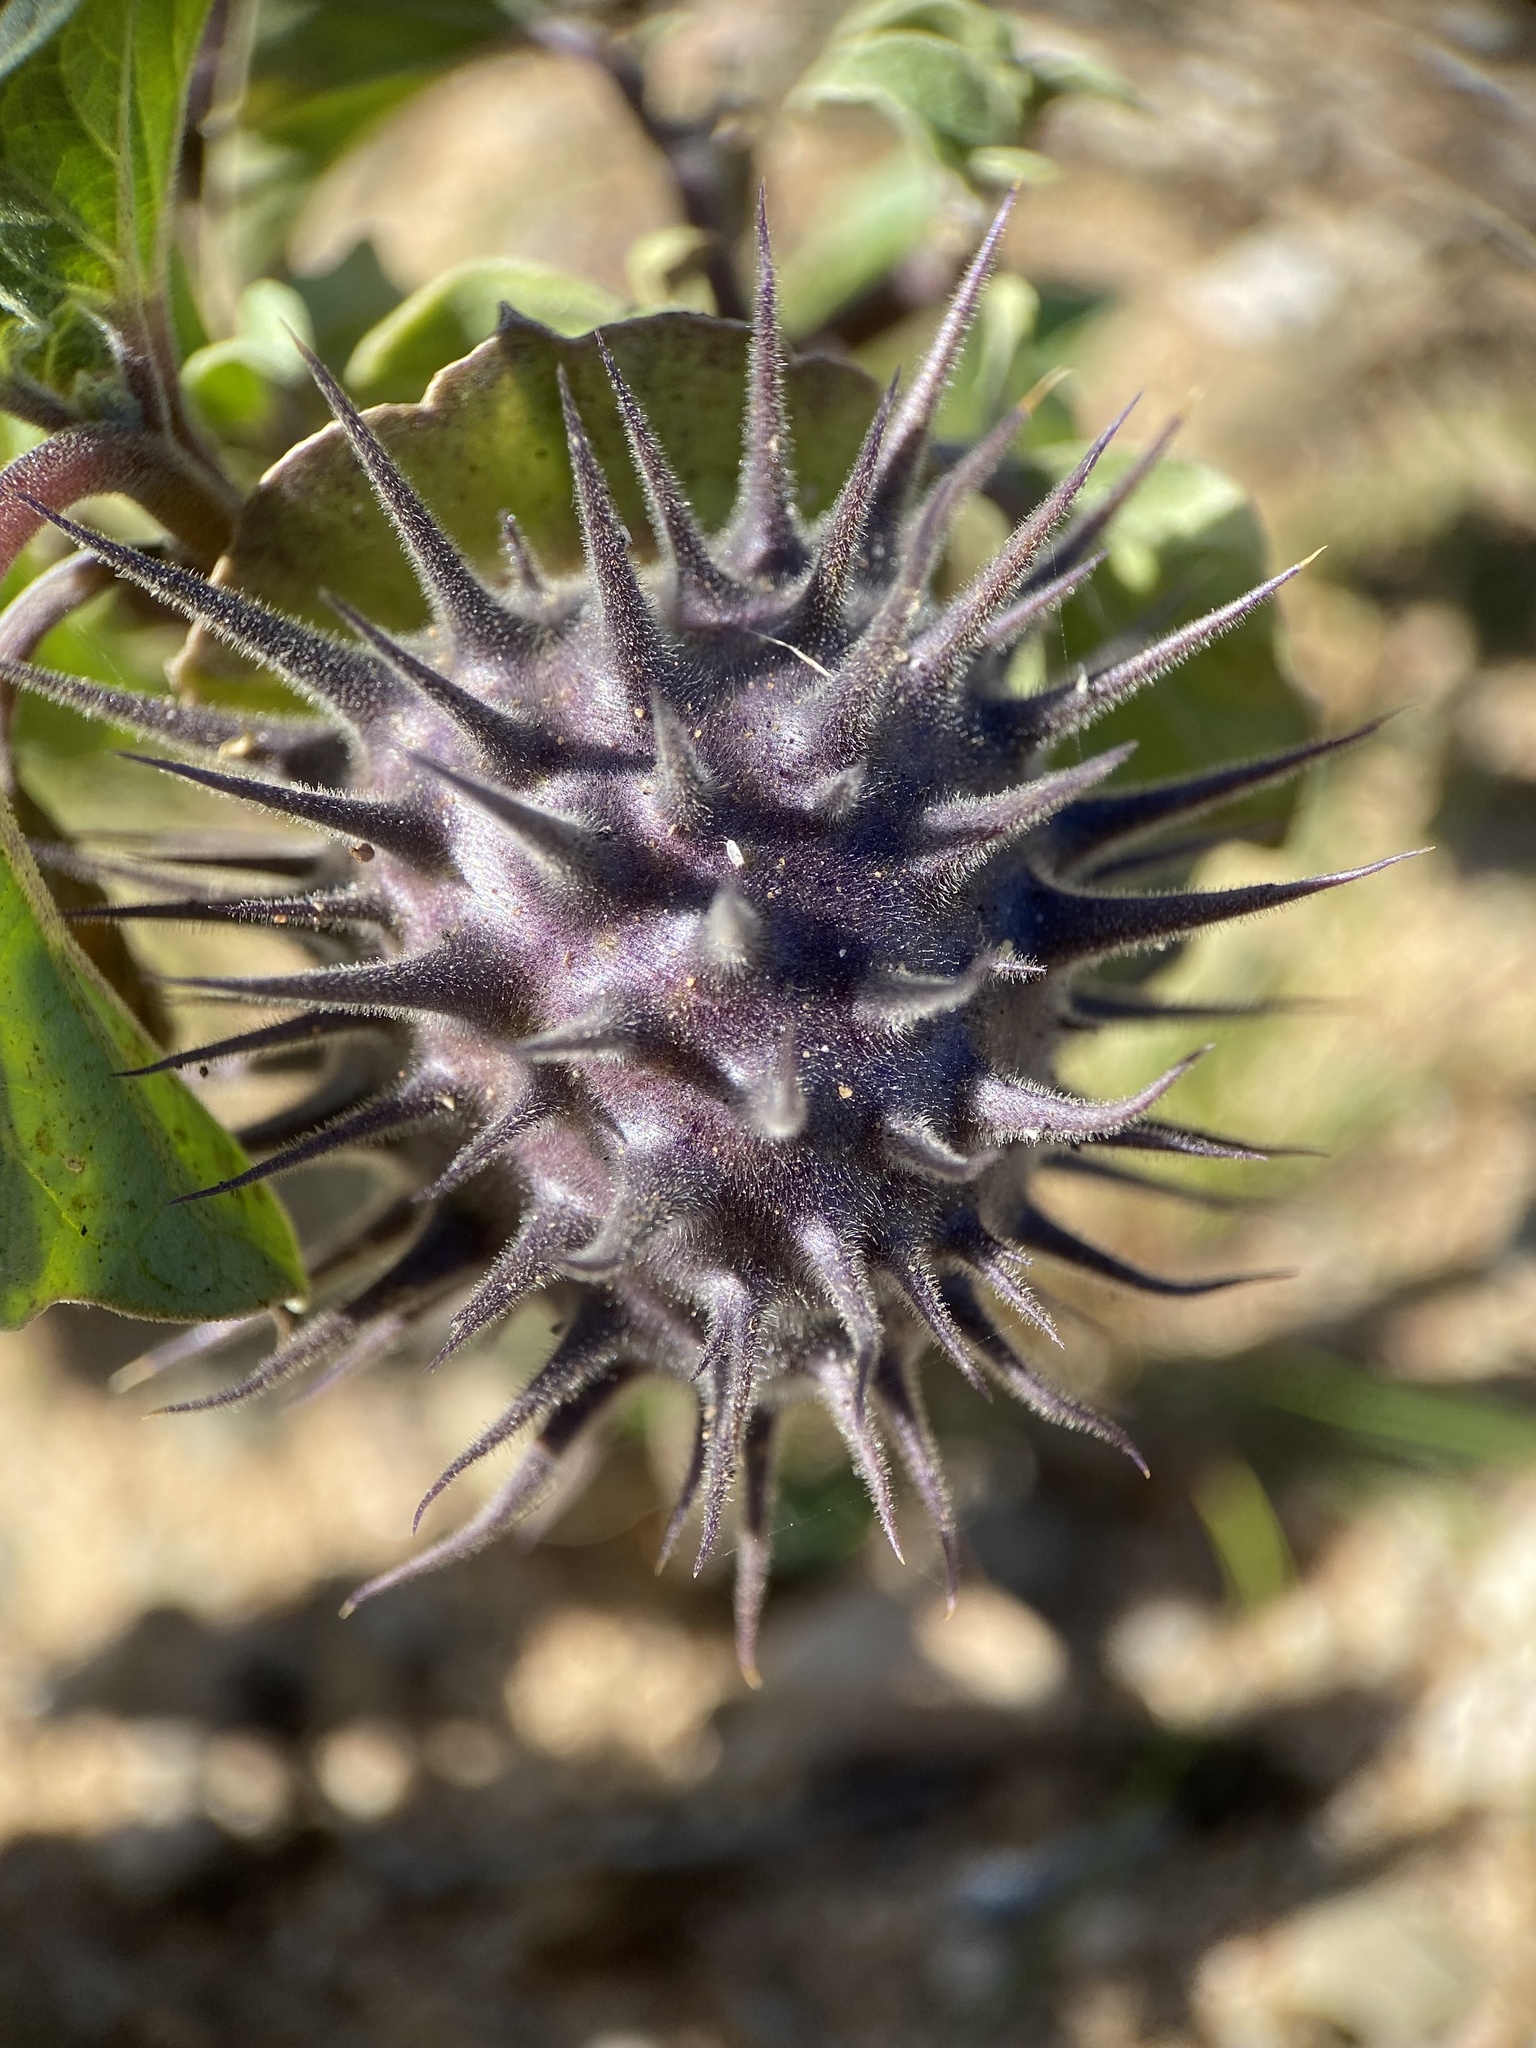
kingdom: Plantae
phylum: Tracheophyta
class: Magnoliopsida
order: Solanales
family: Solanaceae
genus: Datura
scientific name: Datura discolor
